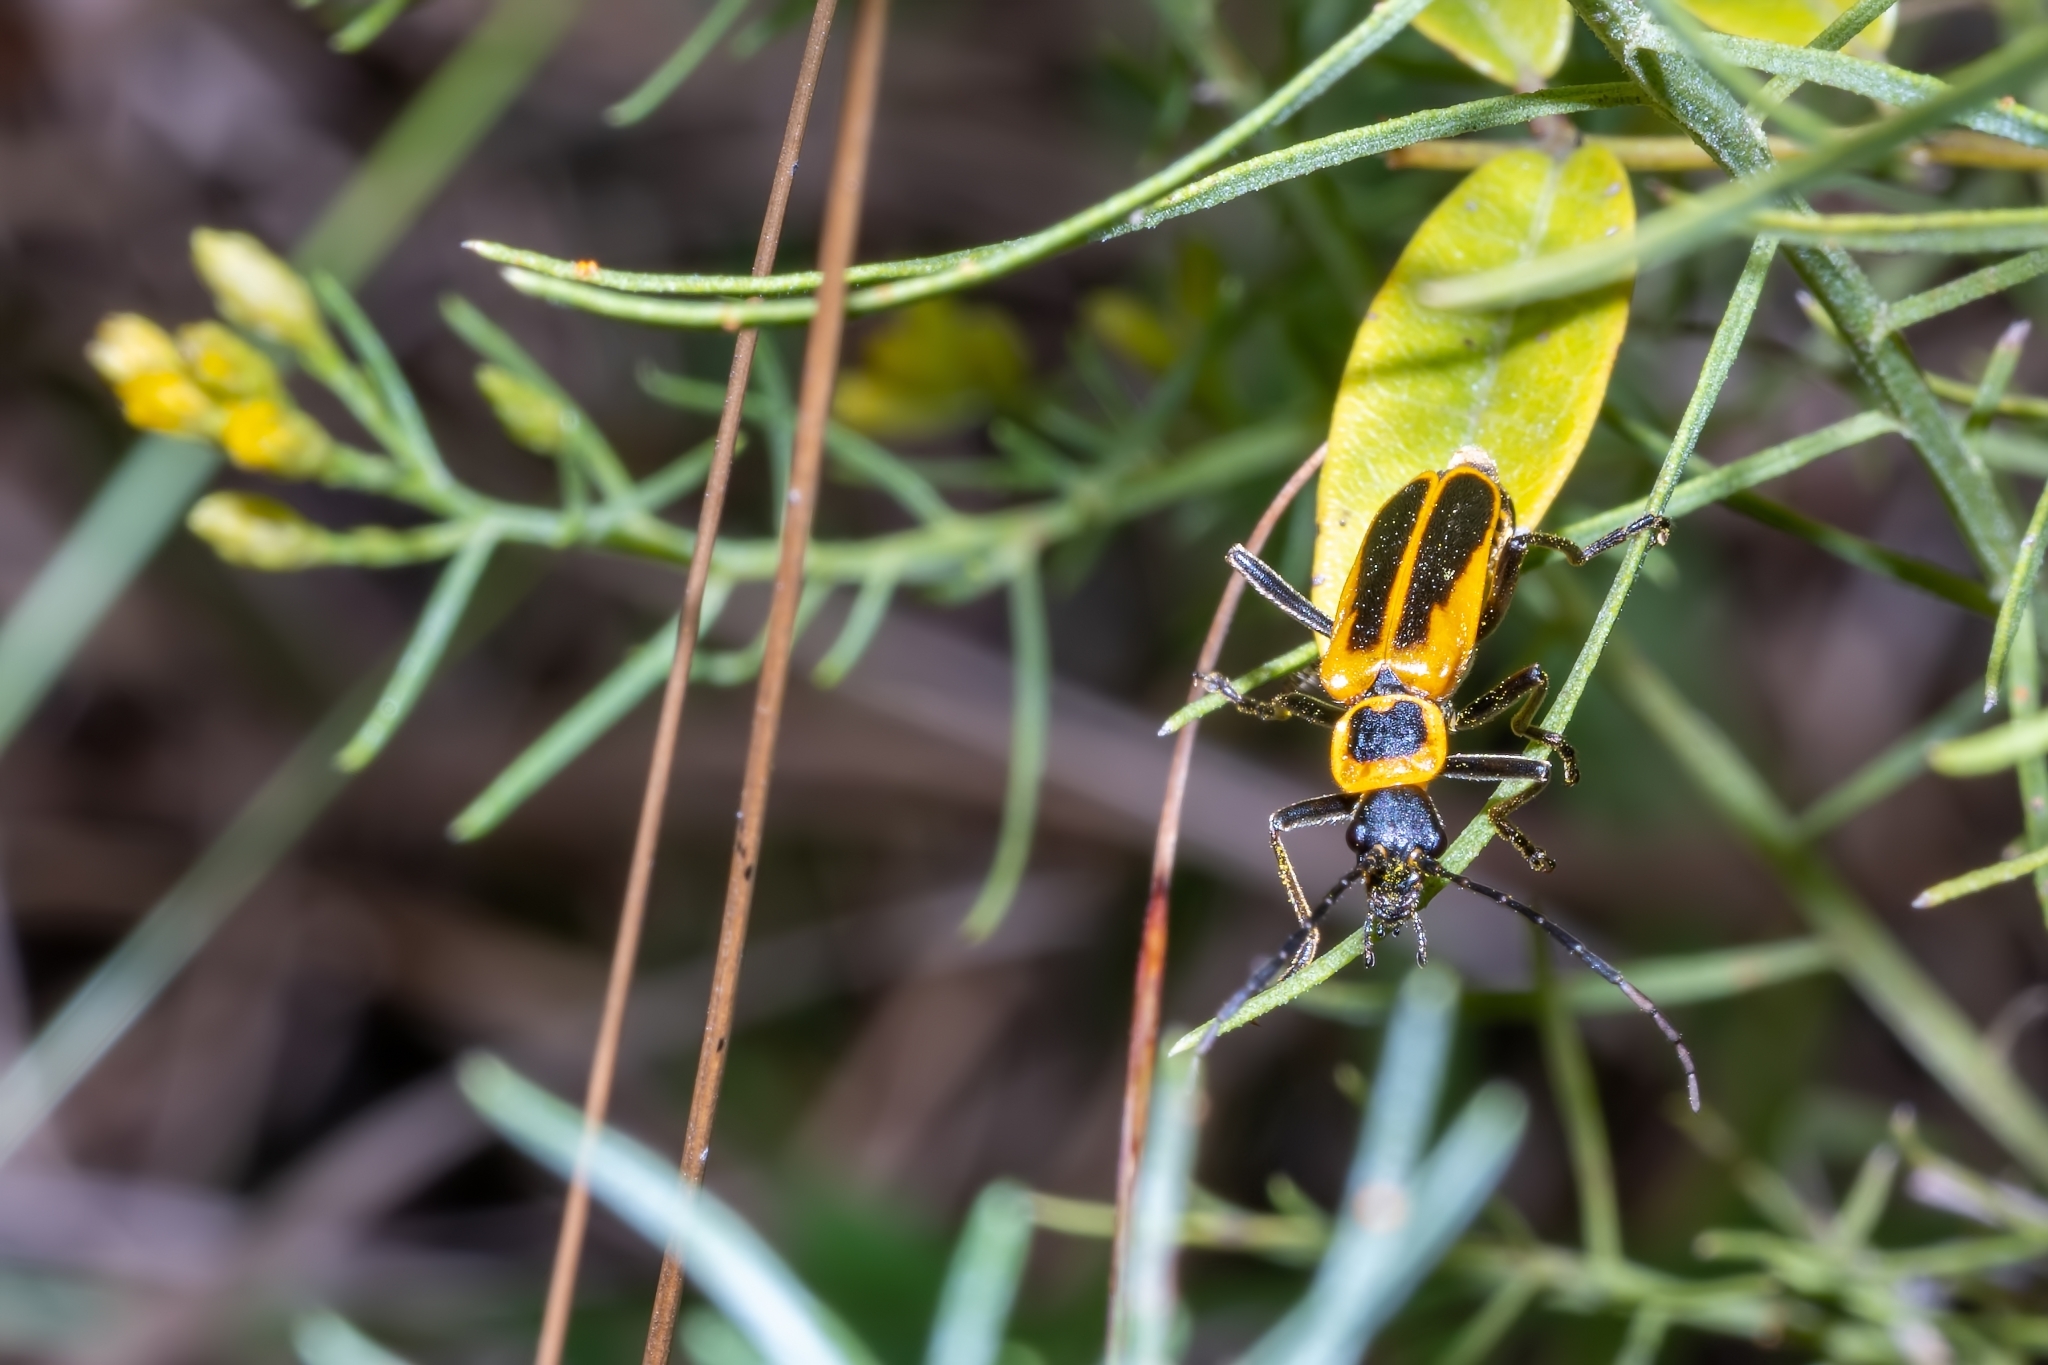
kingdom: Animalia
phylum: Arthropoda
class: Insecta
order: Coleoptera
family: Cantharidae
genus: Chauliognathus
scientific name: Chauliognathus pensylvanicus
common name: Goldenrod soldier beetle
